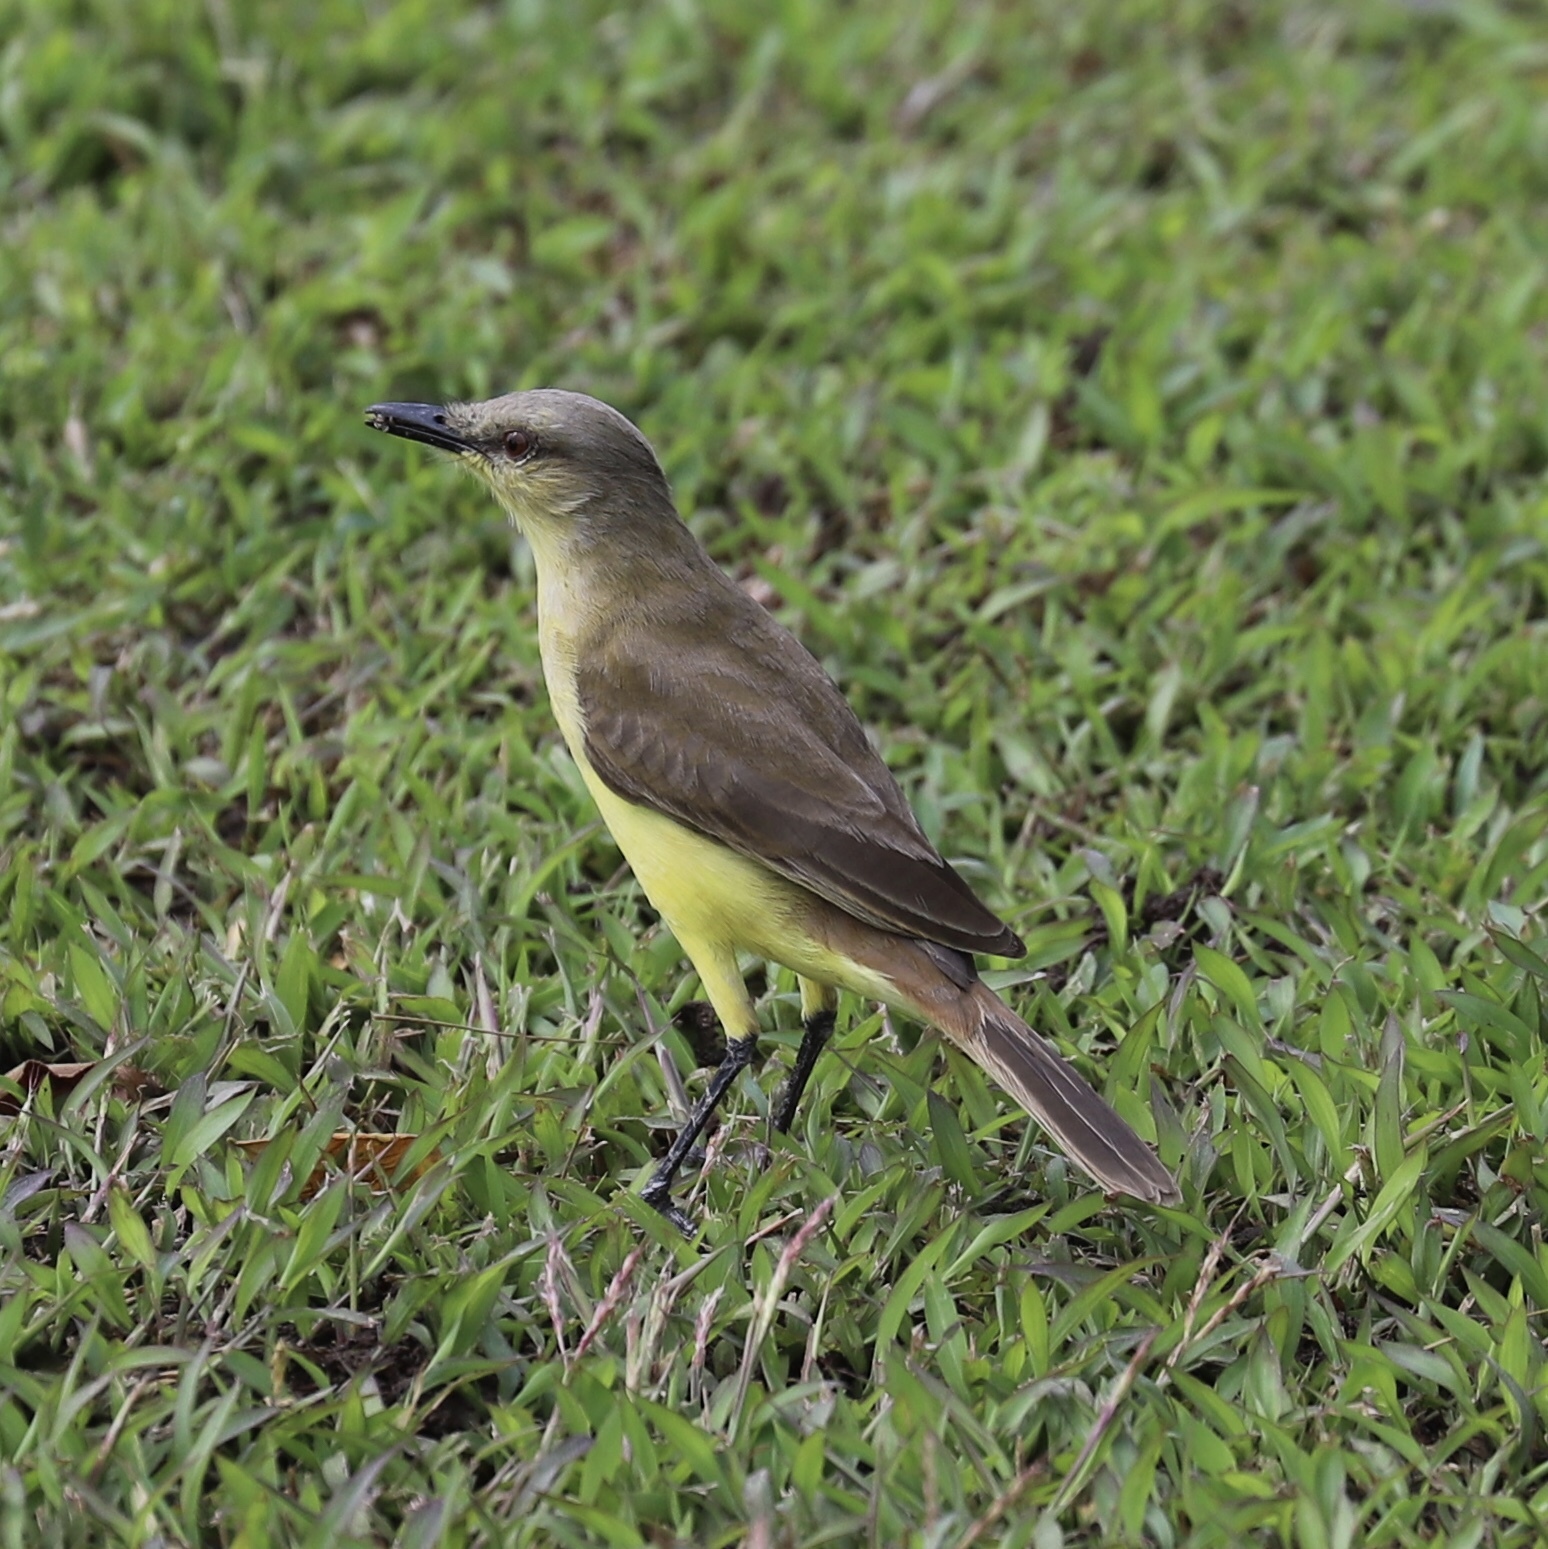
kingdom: Animalia
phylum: Chordata
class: Aves
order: Passeriformes
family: Tyrannidae
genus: Machetornis
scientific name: Machetornis rixosa
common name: Cattle tyrant
